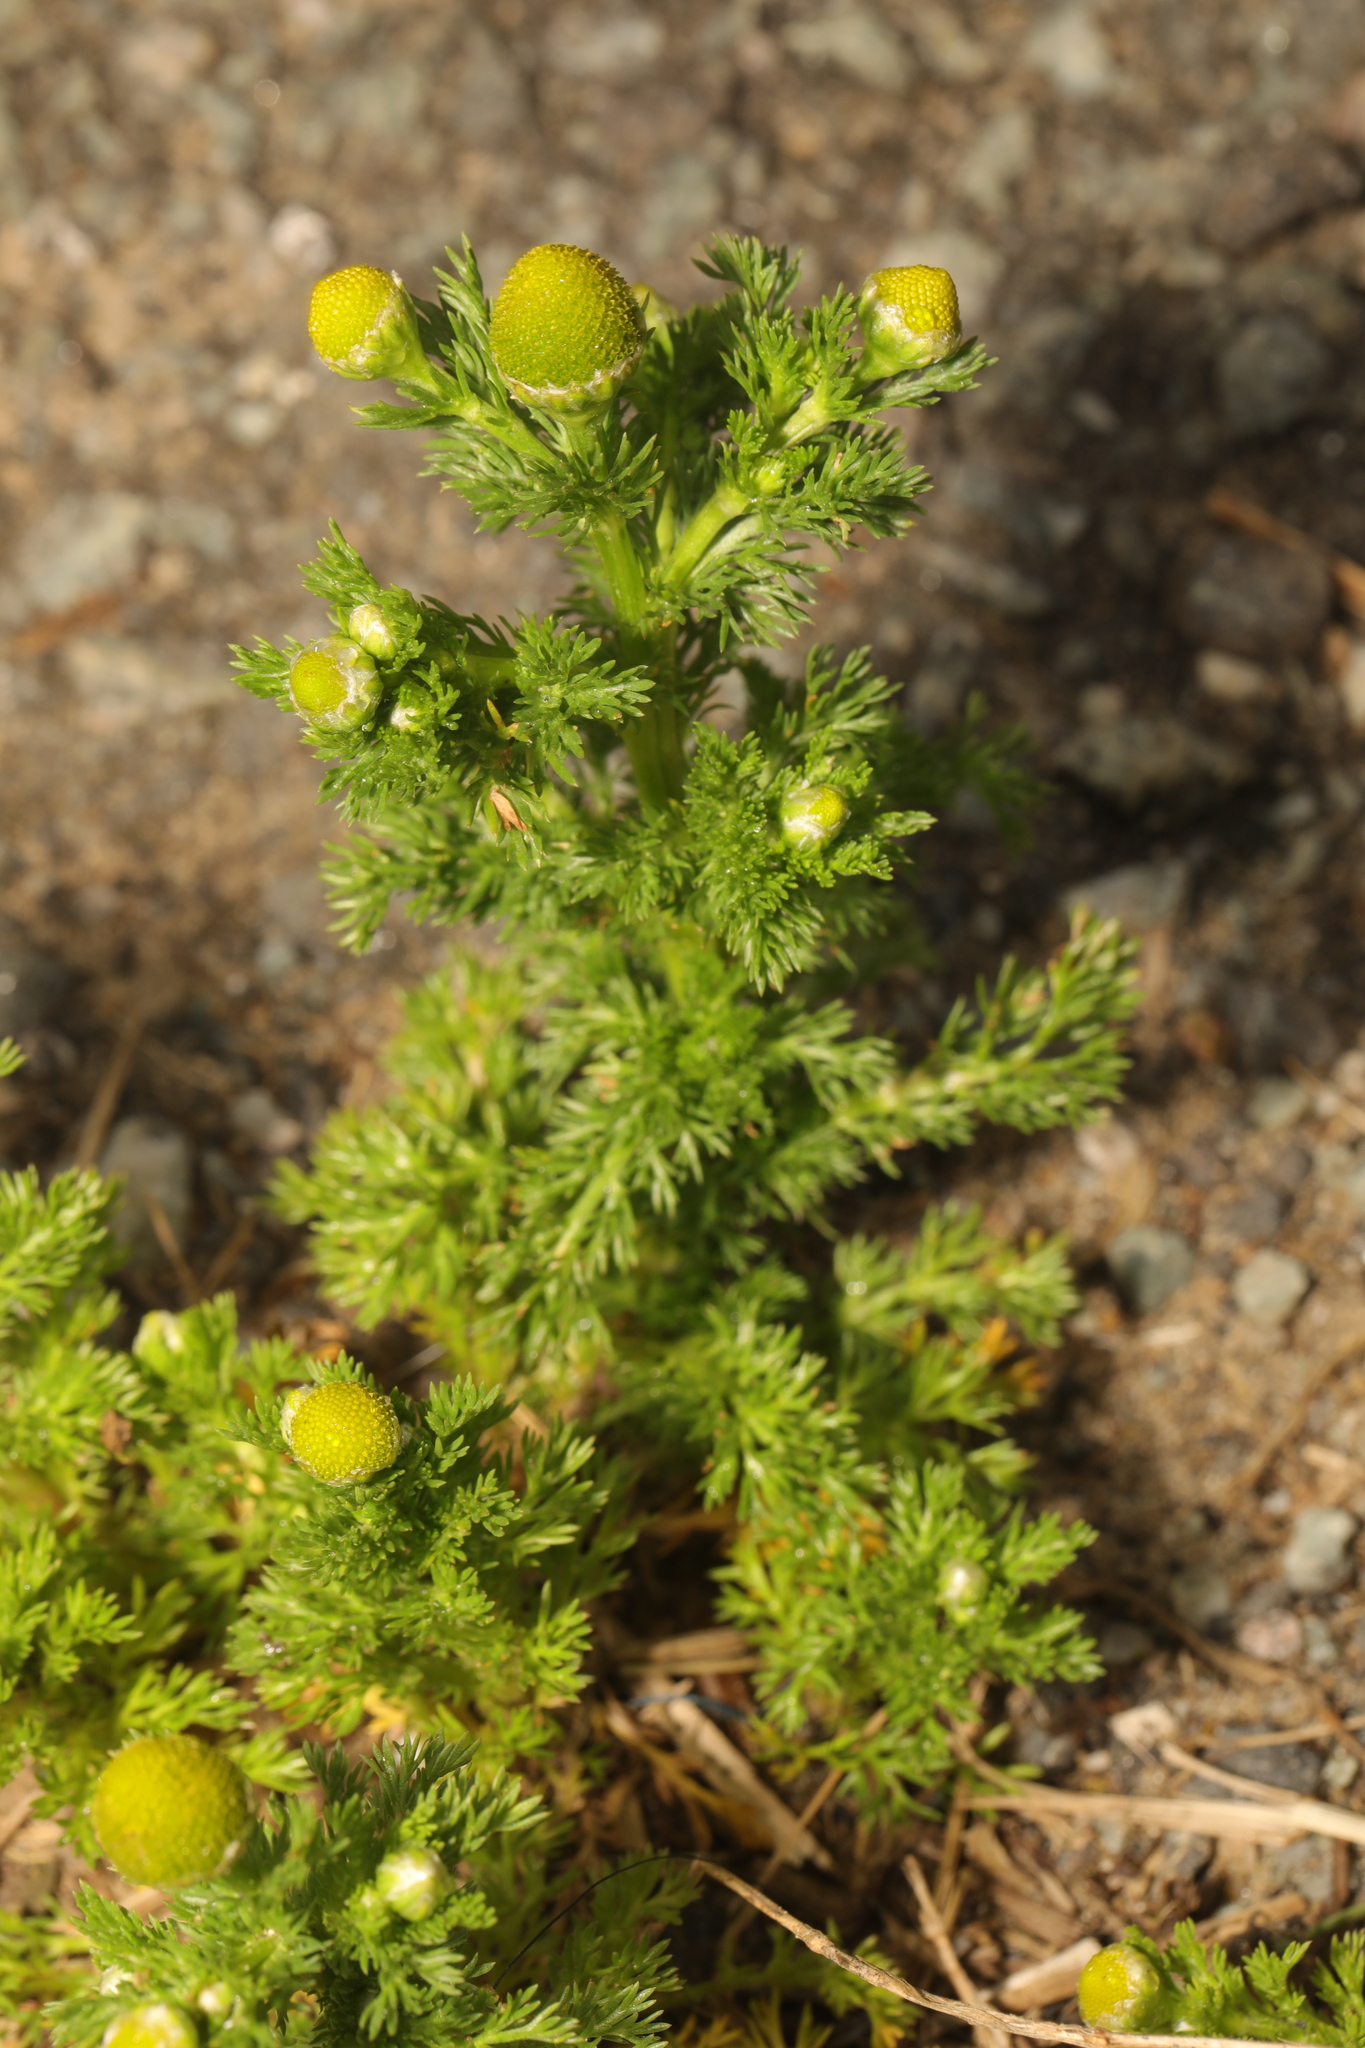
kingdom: Plantae
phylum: Tracheophyta
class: Magnoliopsida
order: Asterales
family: Asteraceae
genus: Matricaria
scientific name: Matricaria discoidea
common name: Disc mayweed
